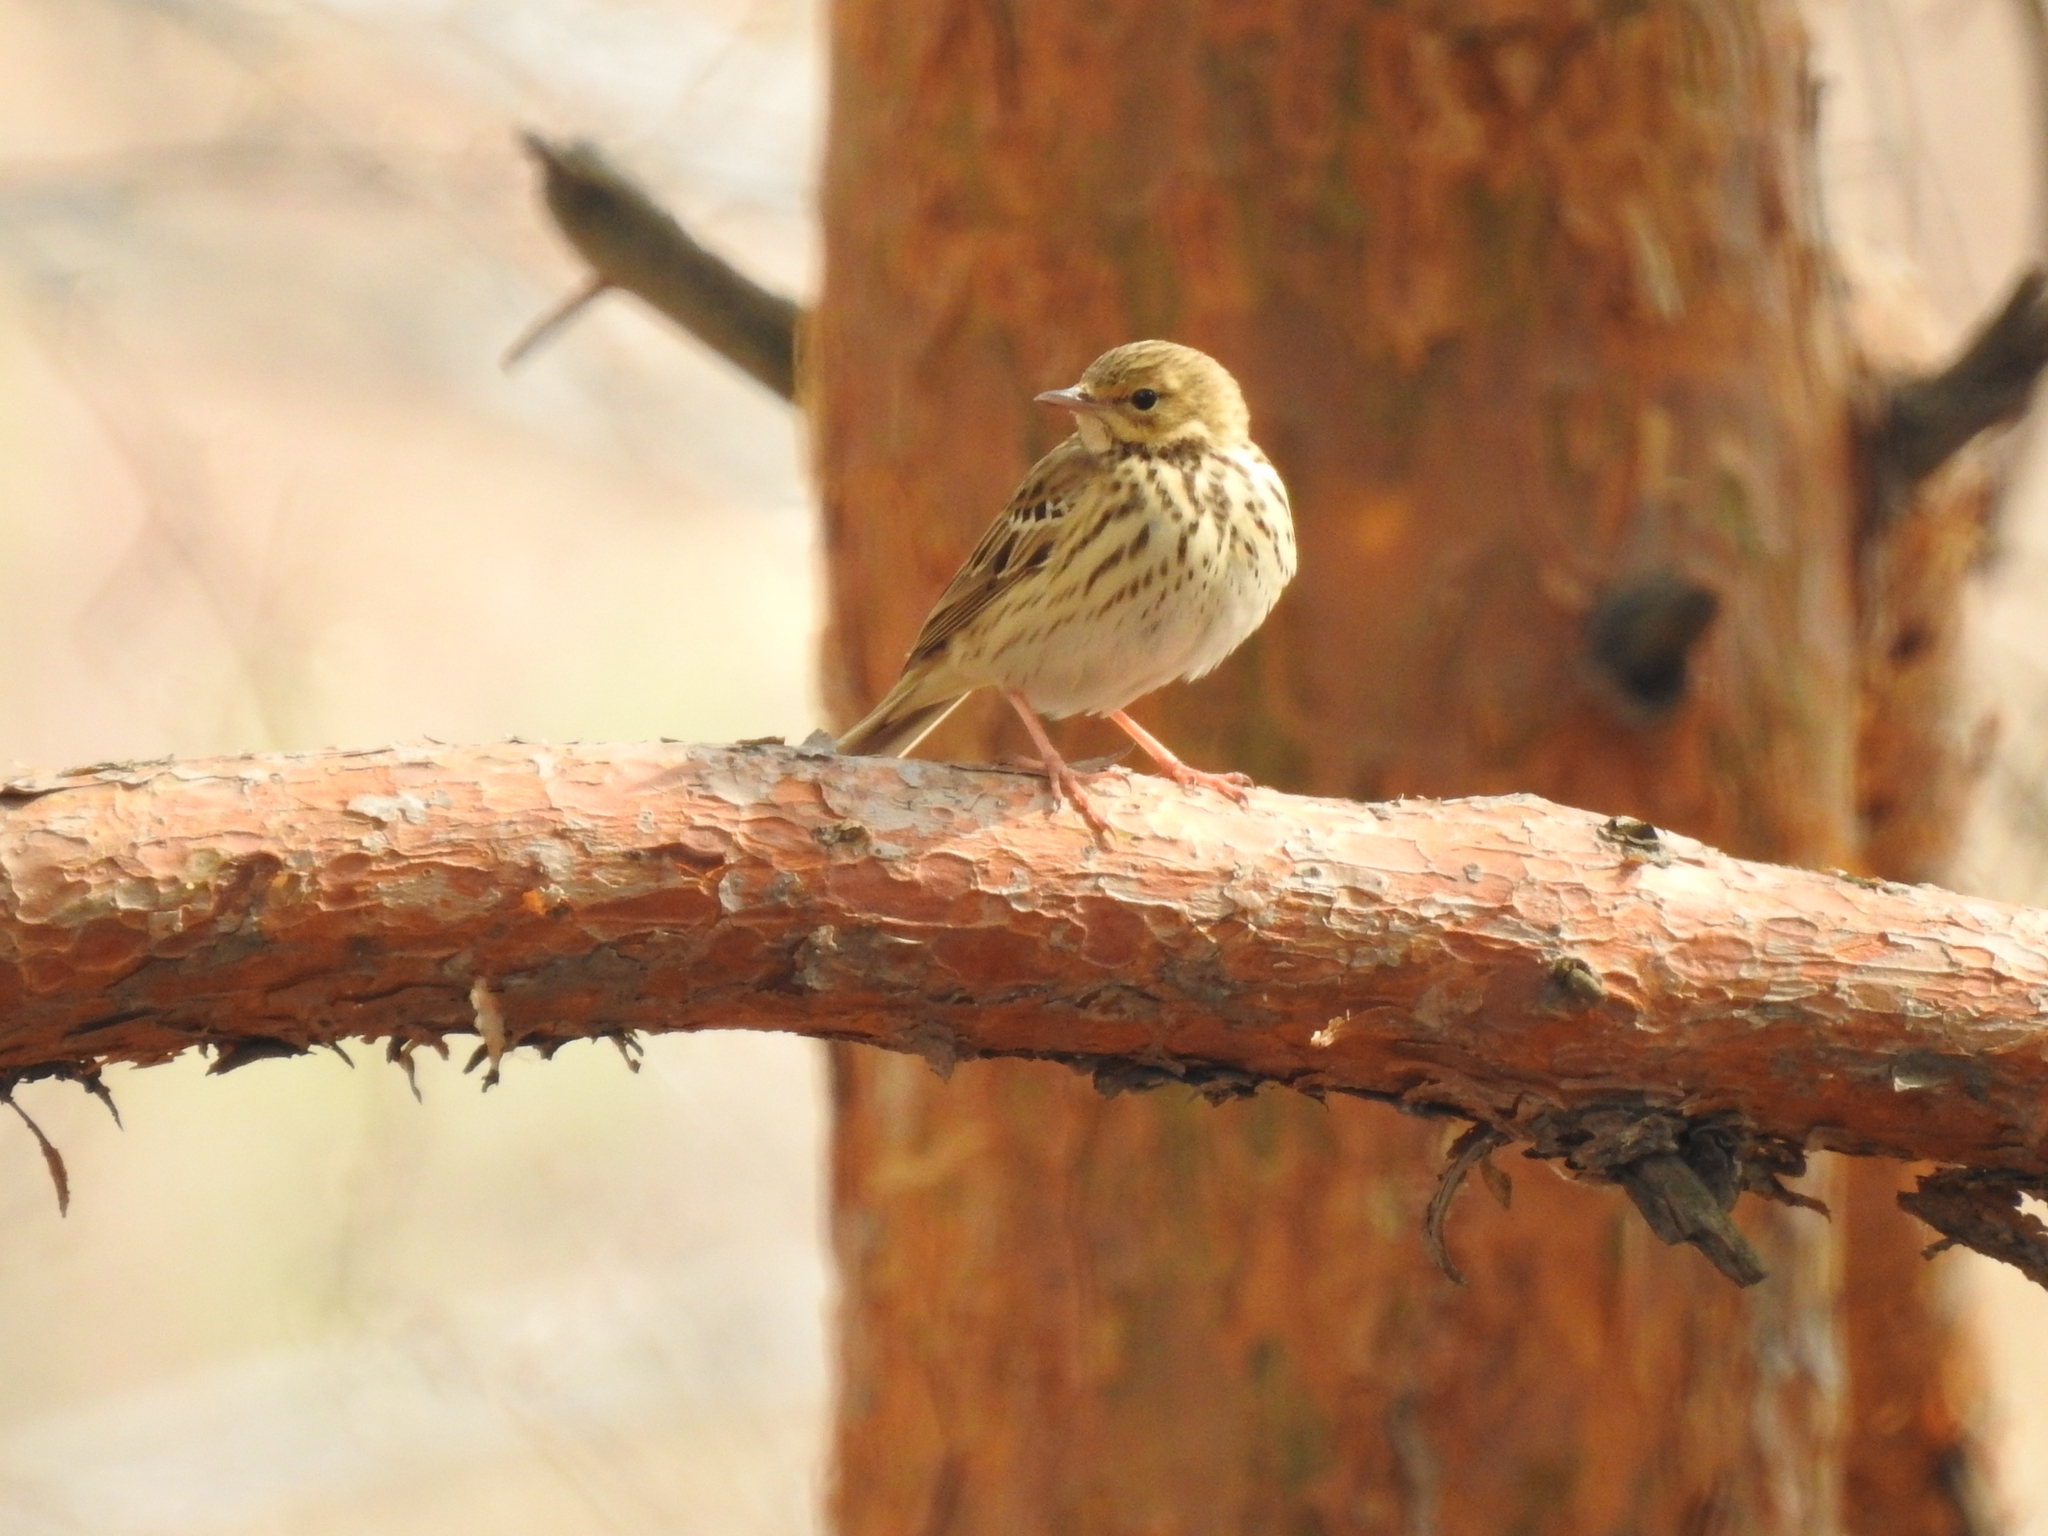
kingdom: Animalia
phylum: Chordata
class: Aves
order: Passeriformes
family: Motacillidae
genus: Anthus
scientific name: Anthus trivialis
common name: Tree pipit
